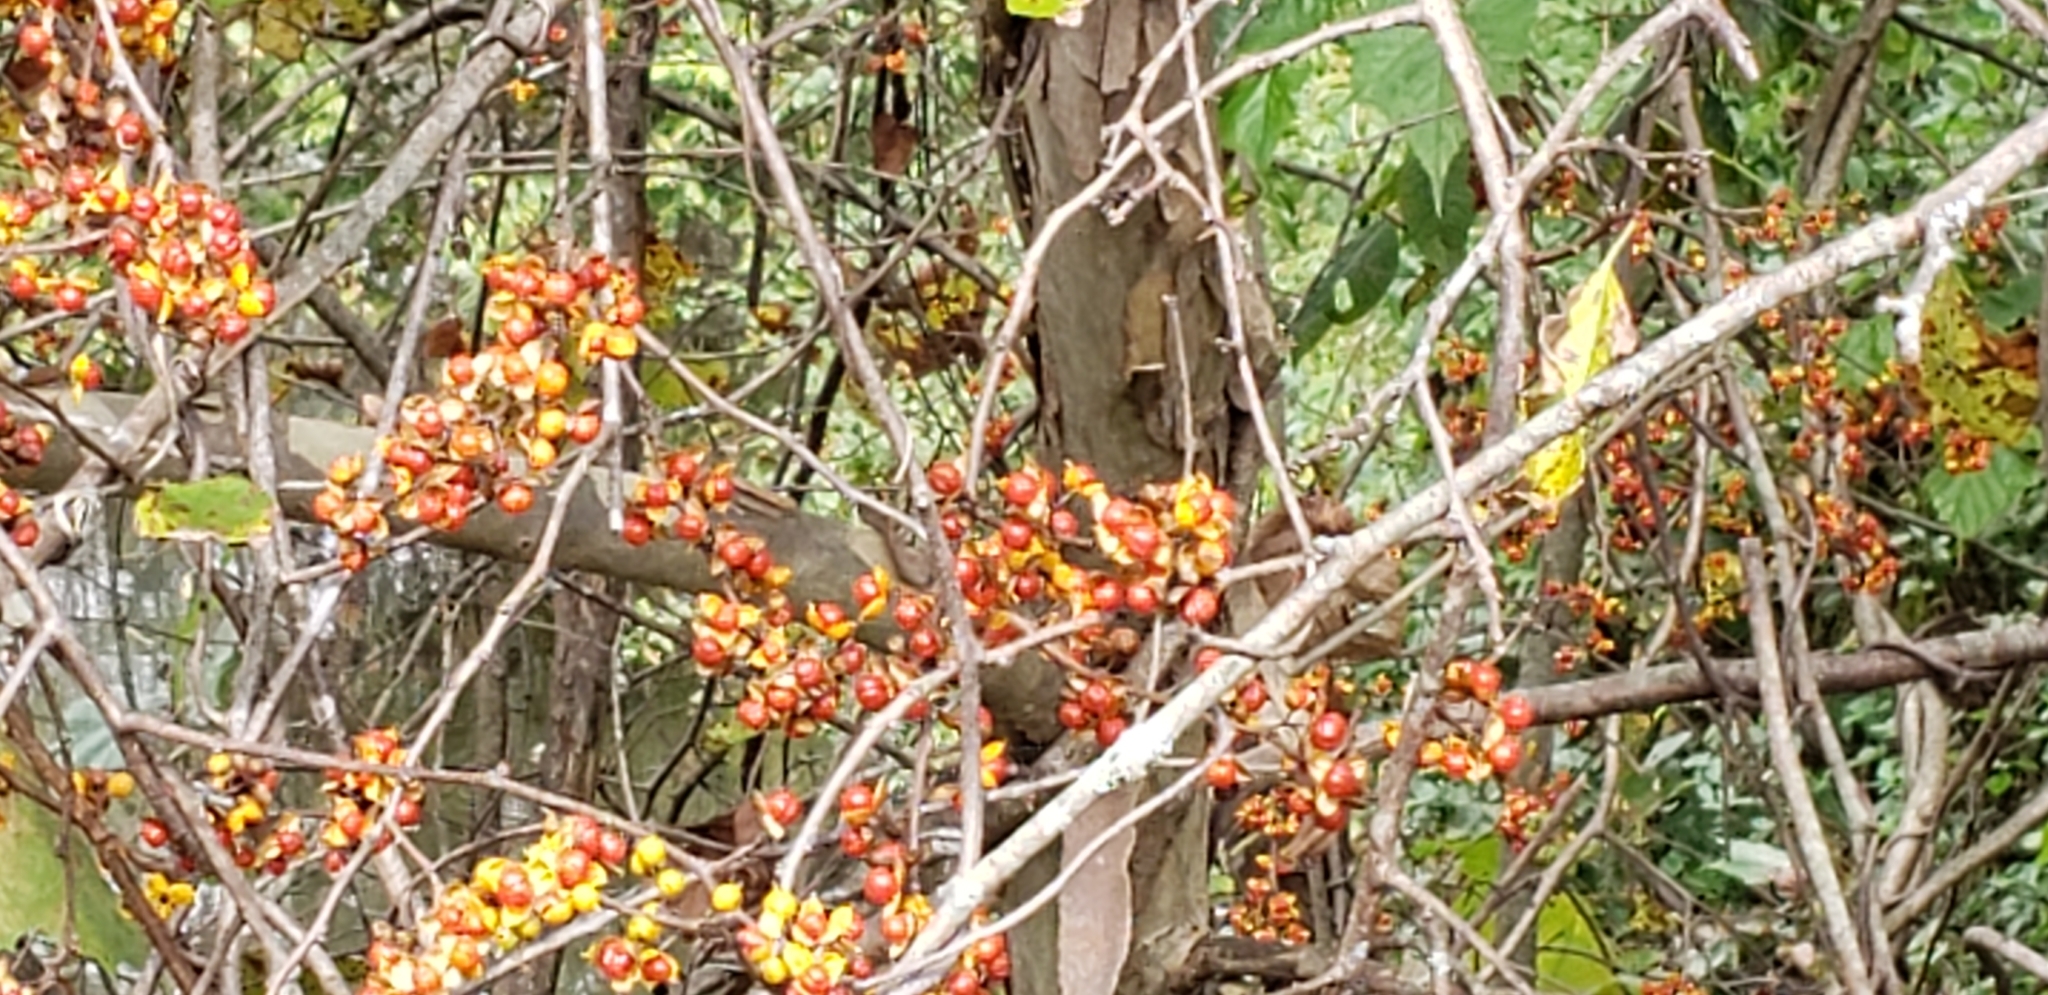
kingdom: Plantae
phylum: Tracheophyta
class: Magnoliopsida
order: Celastrales
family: Celastraceae
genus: Celastrus
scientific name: Celastrus orbiculatus
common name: Oriental bittersweet
